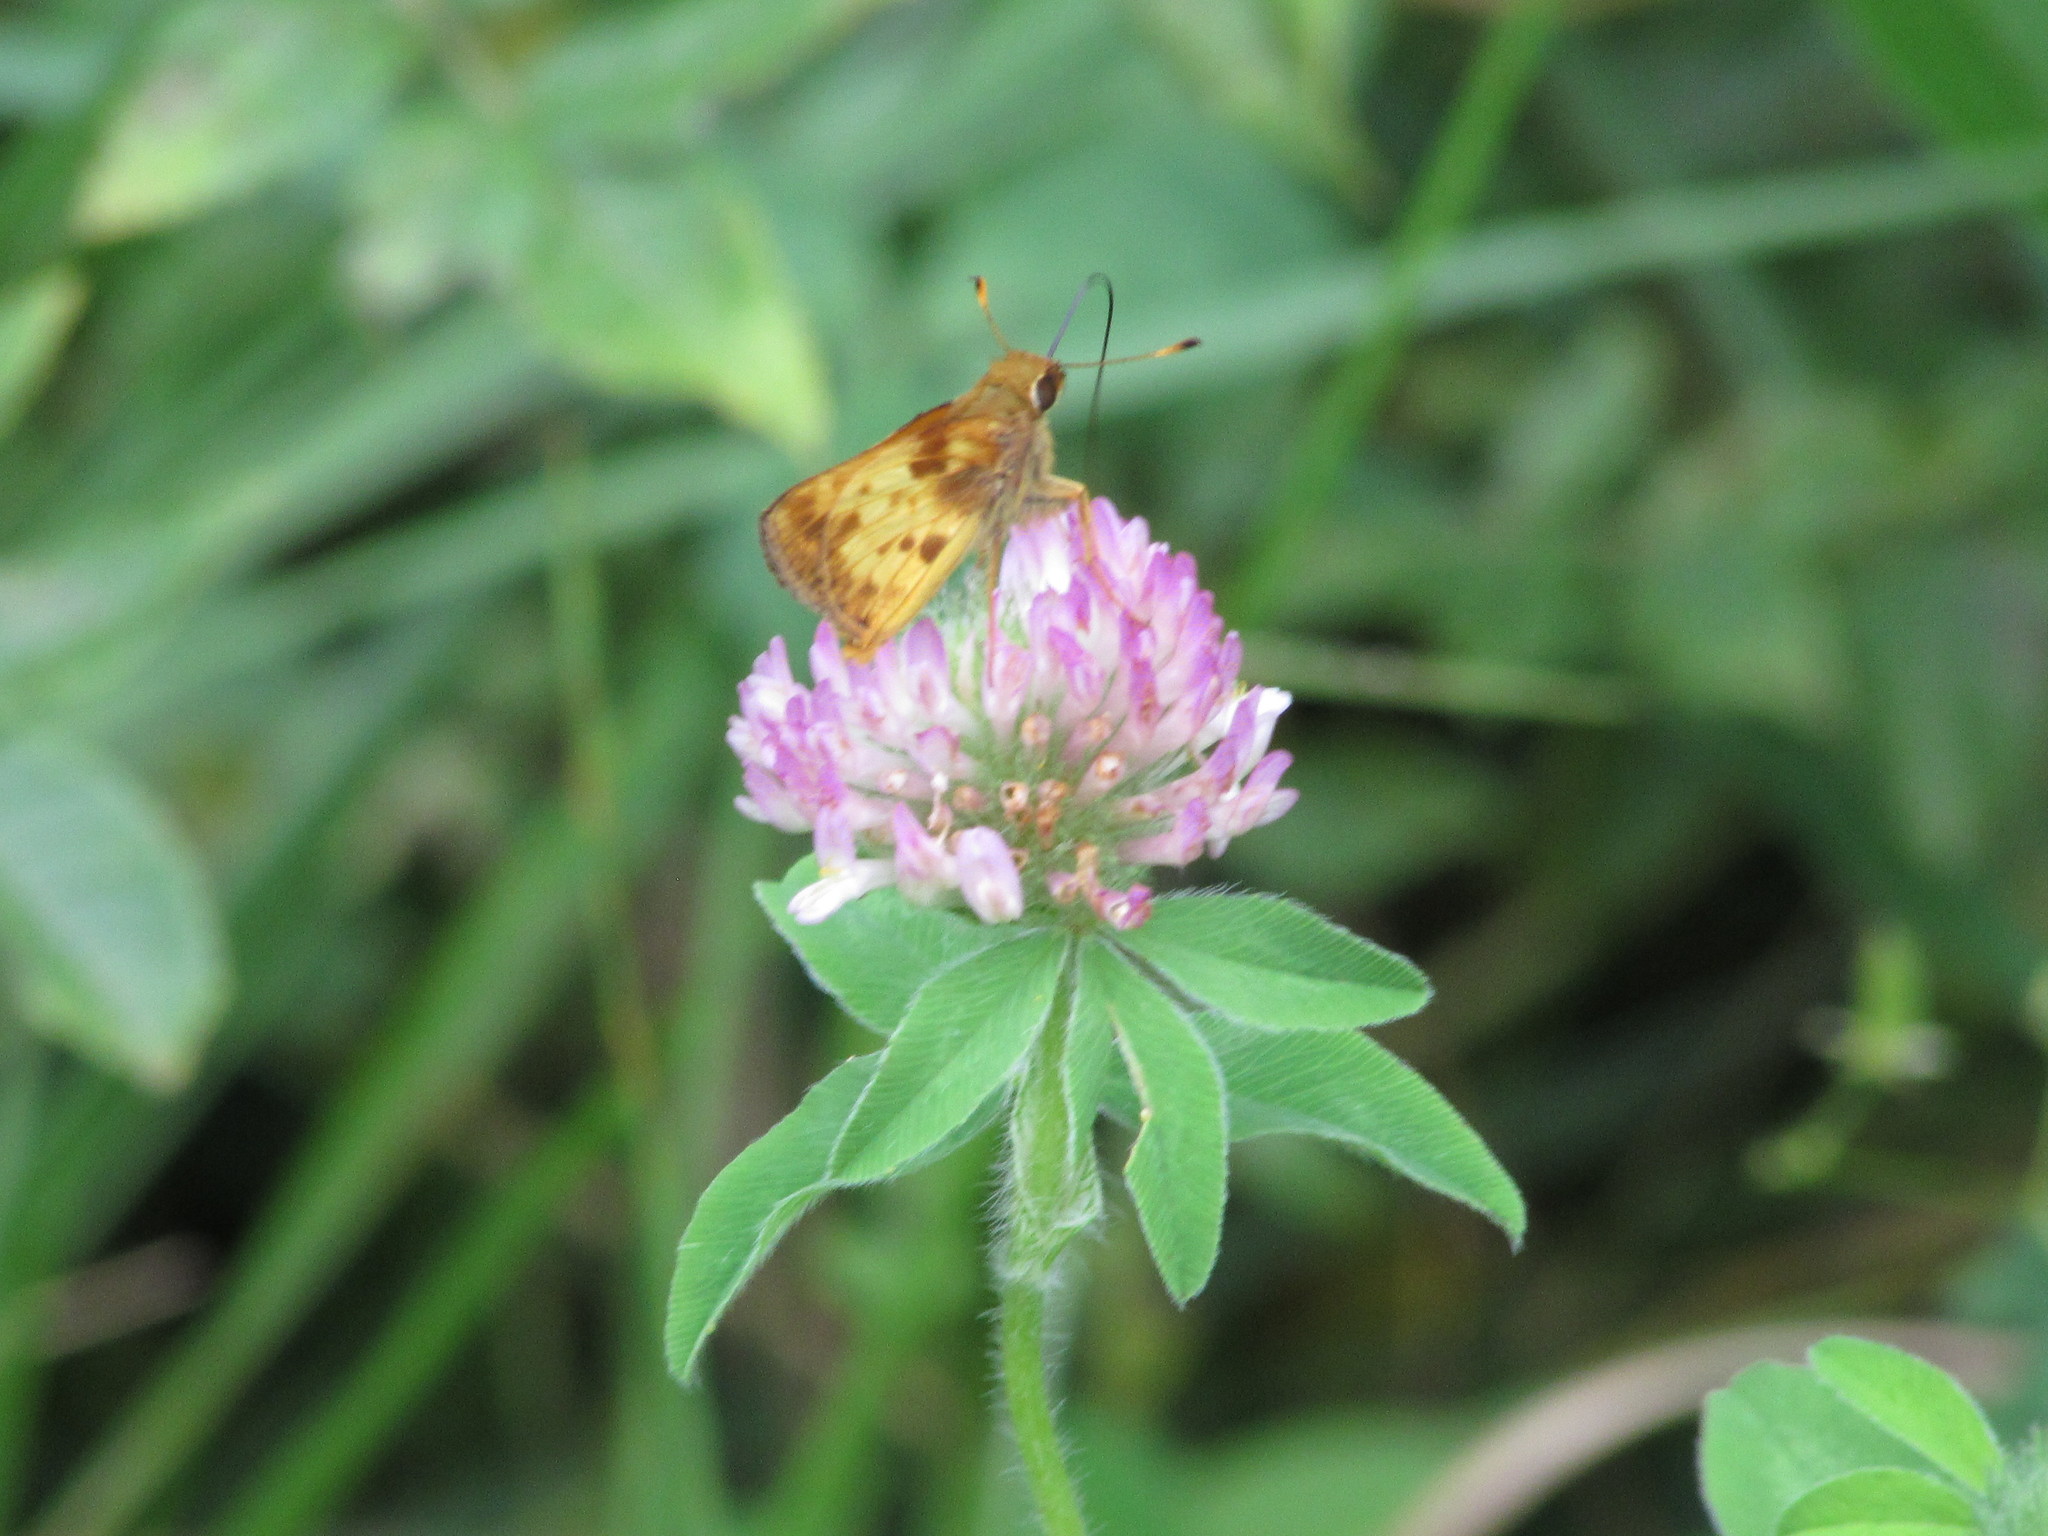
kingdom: Animalia
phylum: Arthropoda
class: Insecta
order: Lepidoptera
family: Hesperiidae
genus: Lon
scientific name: Lon zabulon
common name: Zabulon skipper
